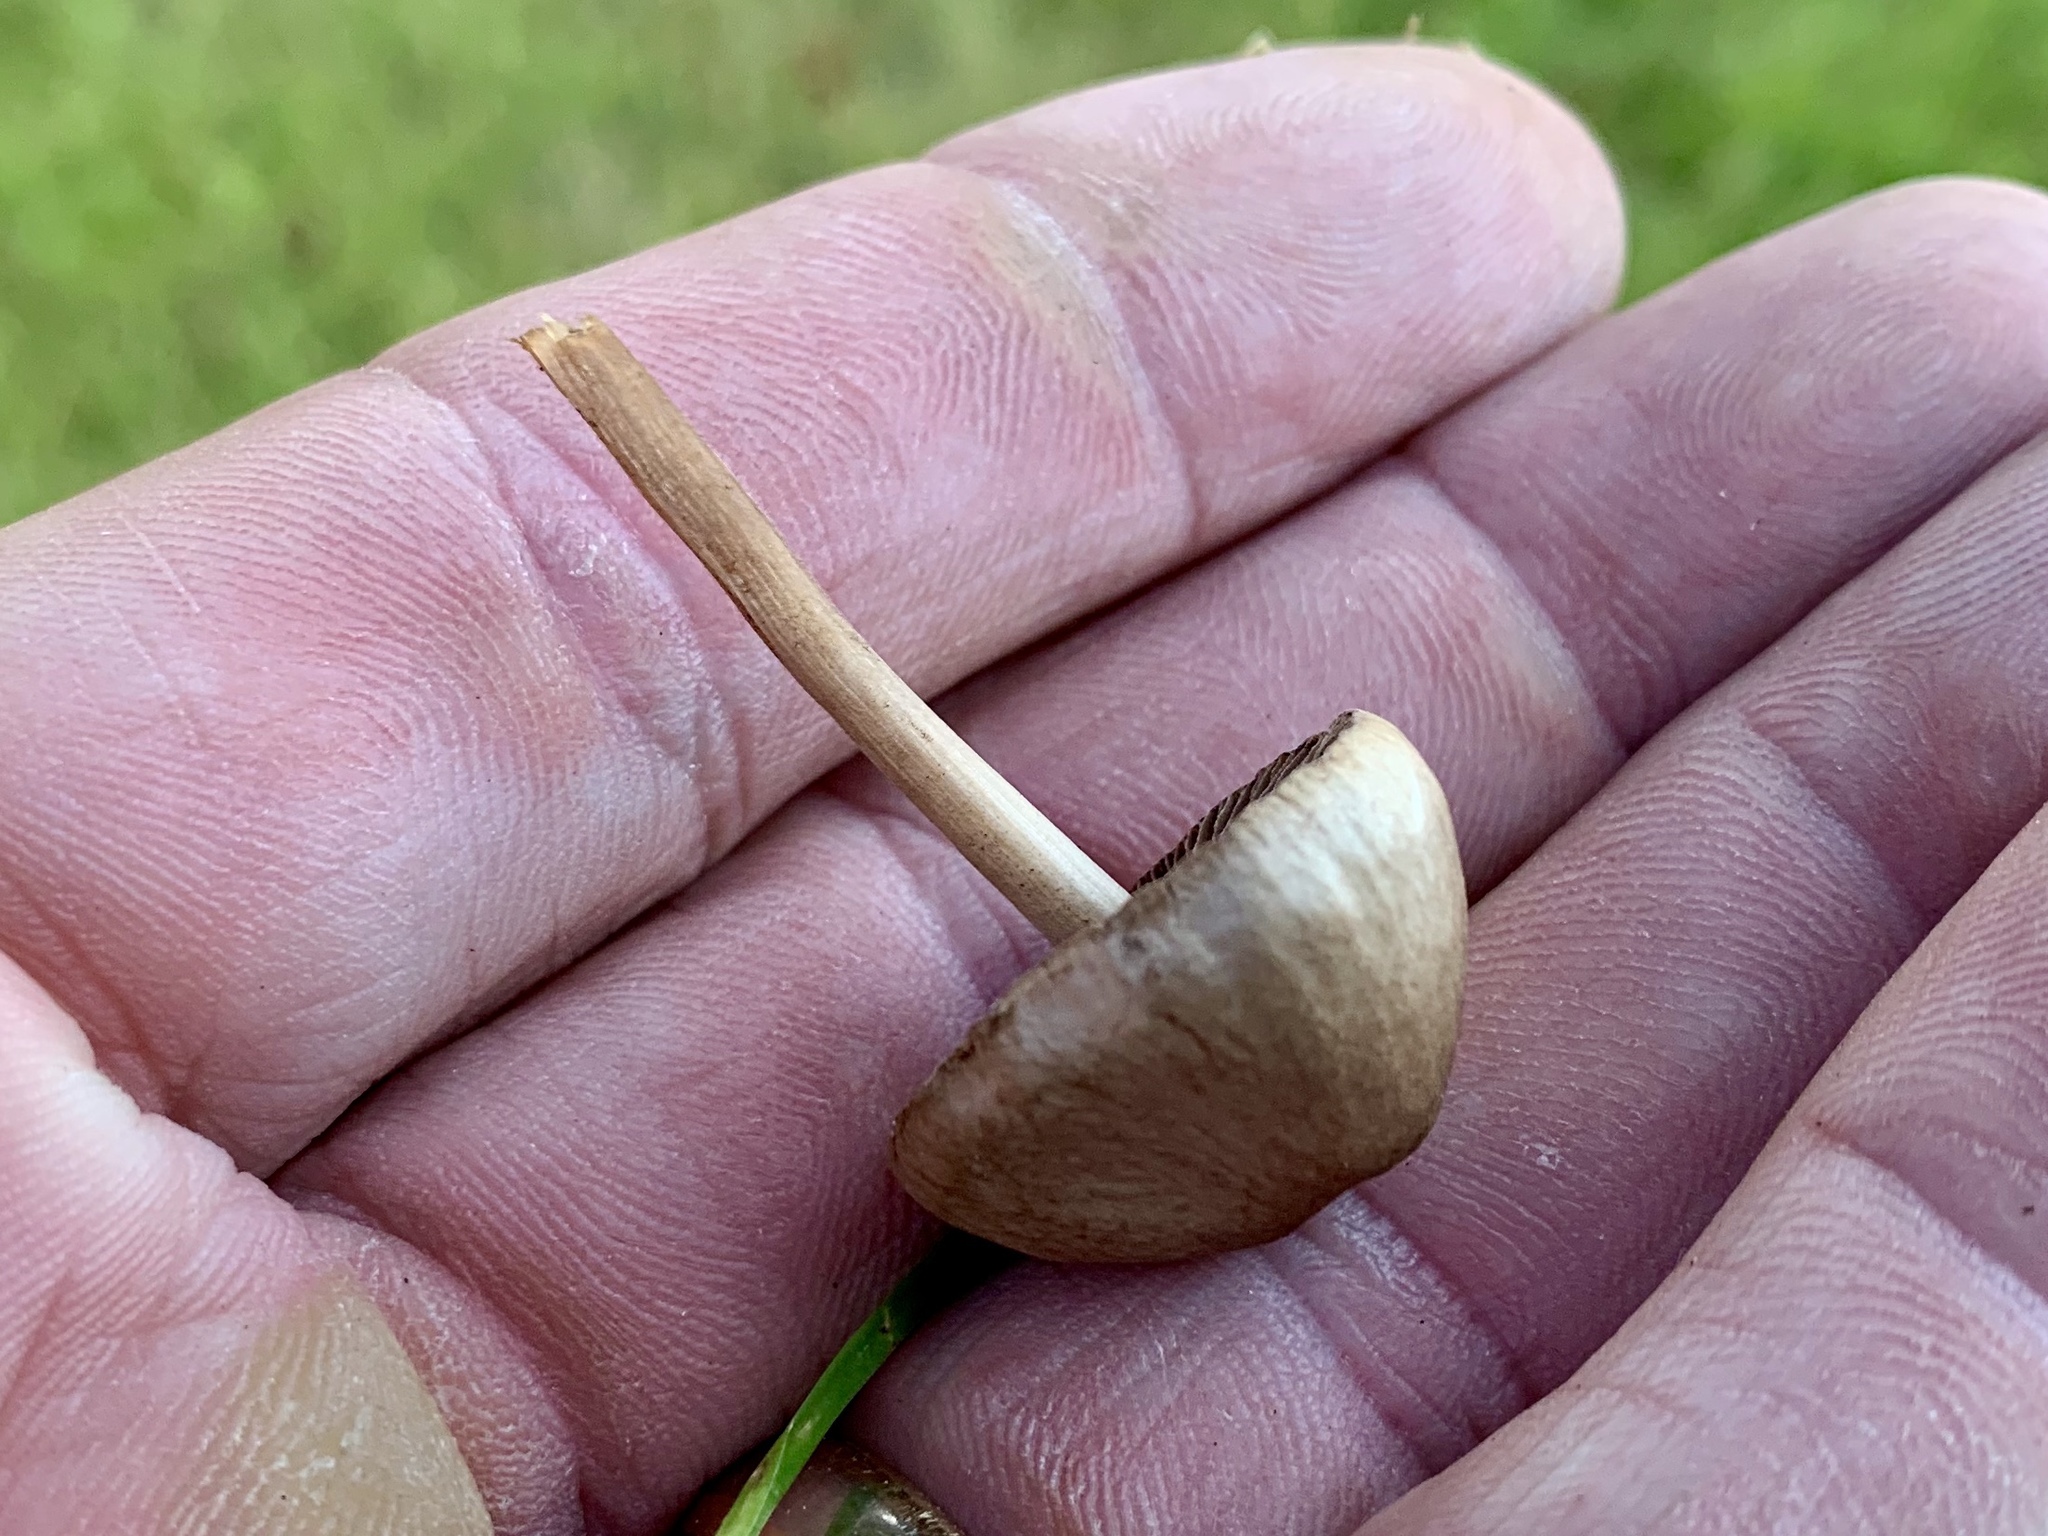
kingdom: Fungi
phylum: Basidiomycota
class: Agaricomycetes
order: Agaricales
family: Bolbitiaceae
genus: Panaeolina
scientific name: Panaeolina foenisecii
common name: Brown hay cap
